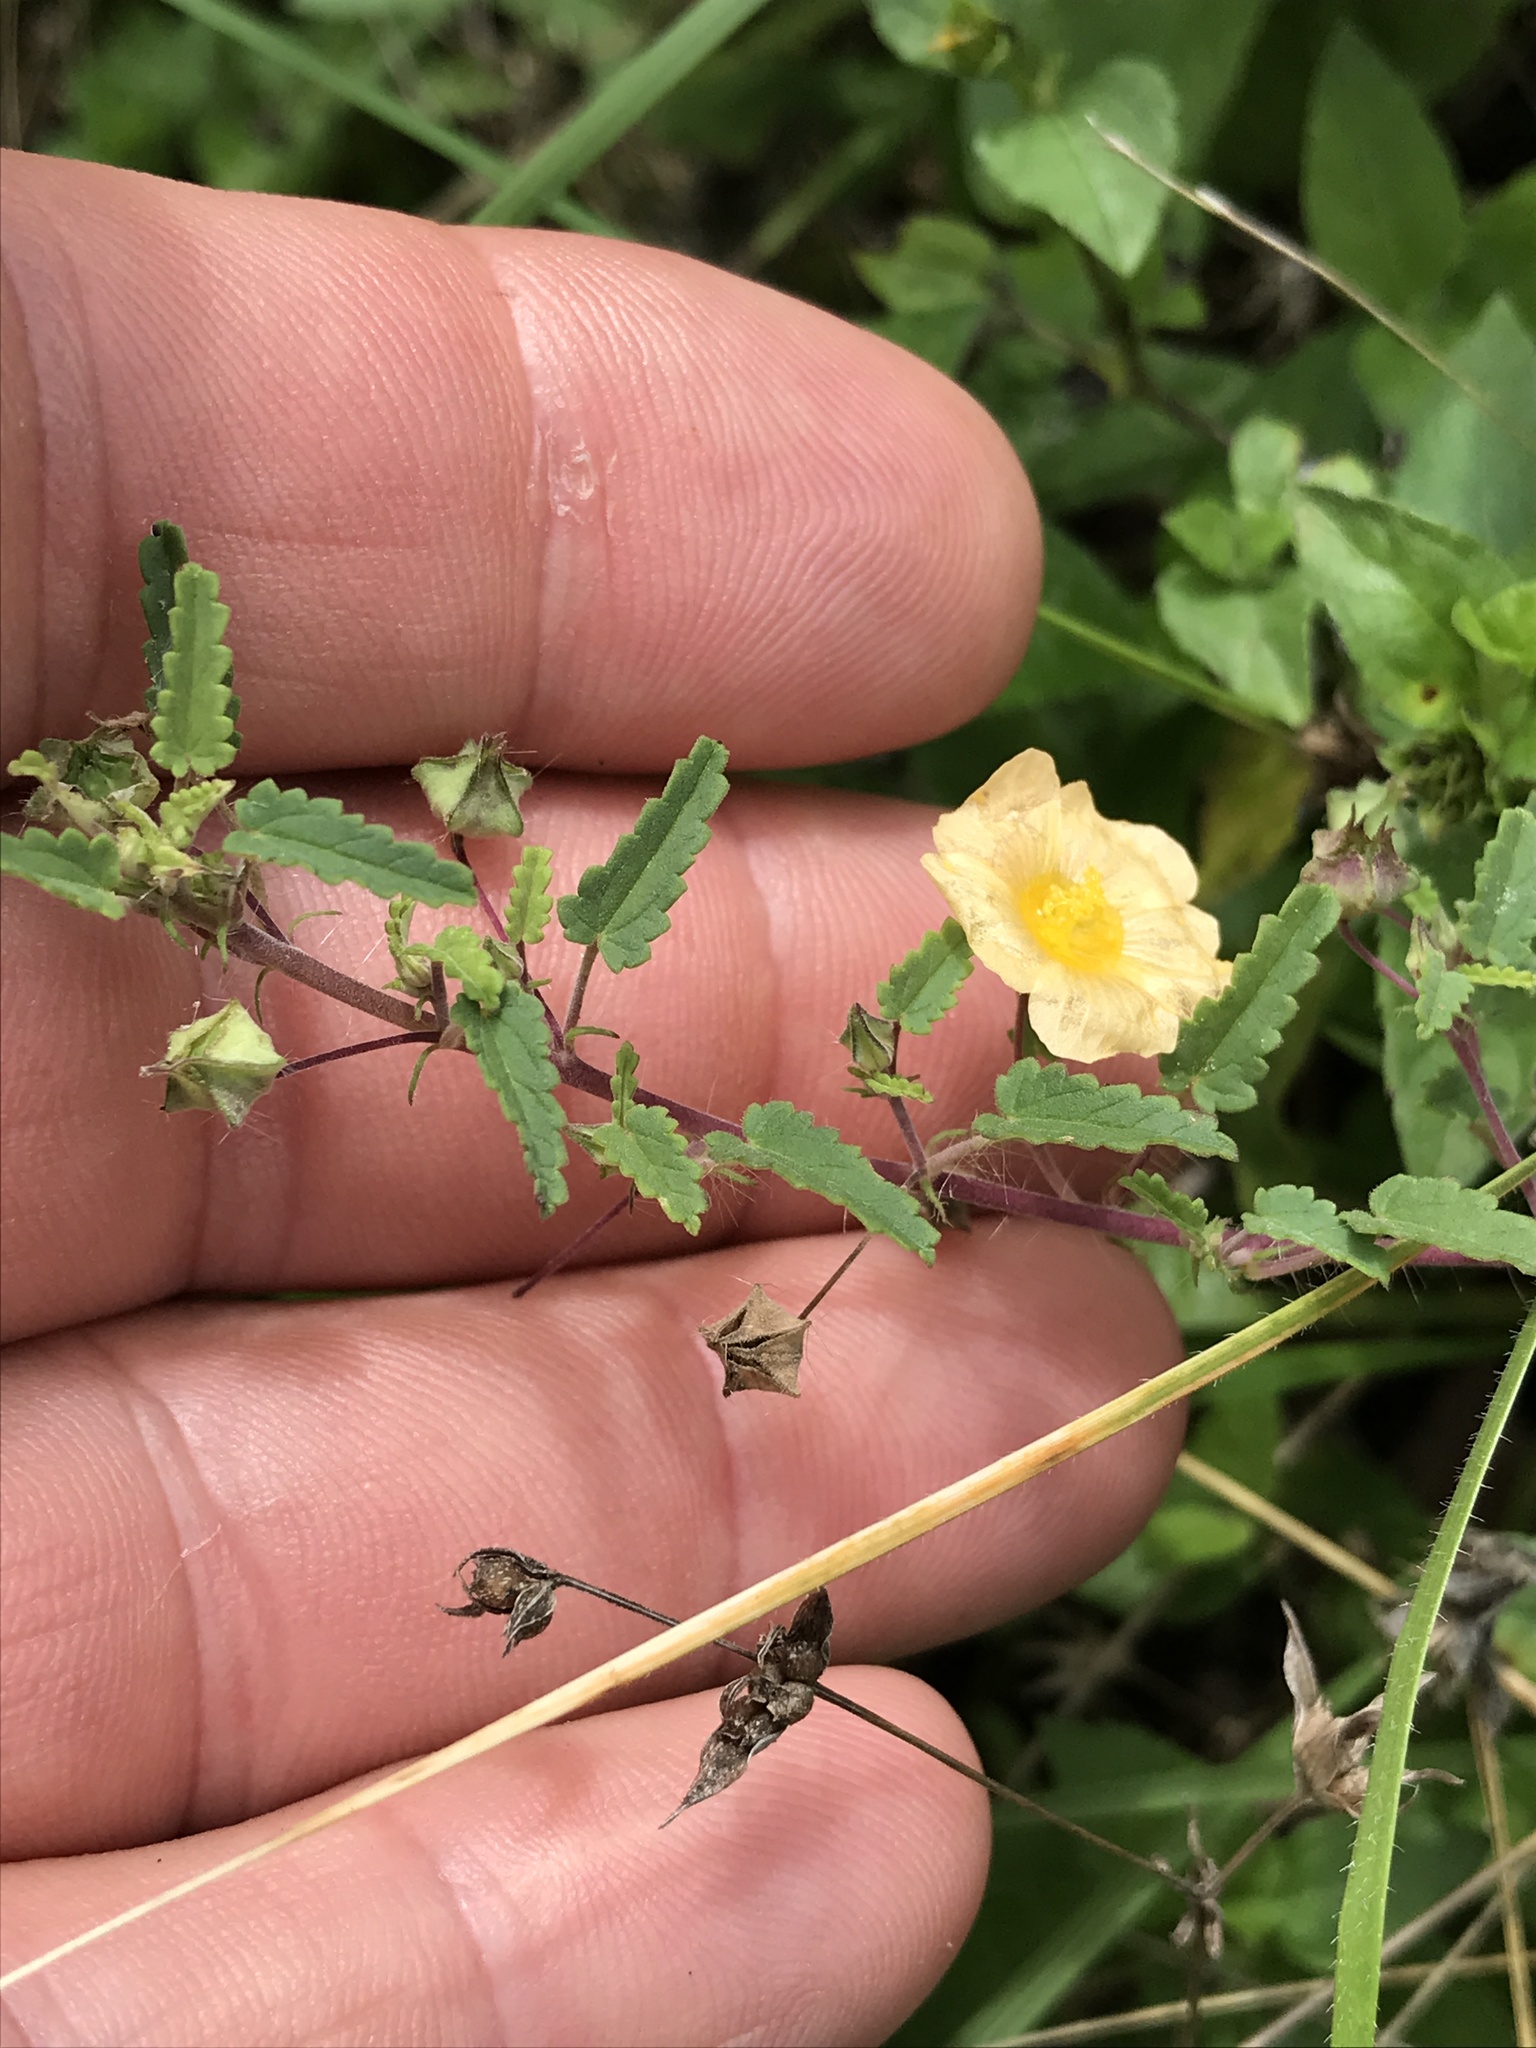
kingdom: Plantae
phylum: Tracheophyta
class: Magnoliopsida
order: Malvales
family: Malvaceae
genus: Sida
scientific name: Sida abutilifolia
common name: Spreading fanpetals
